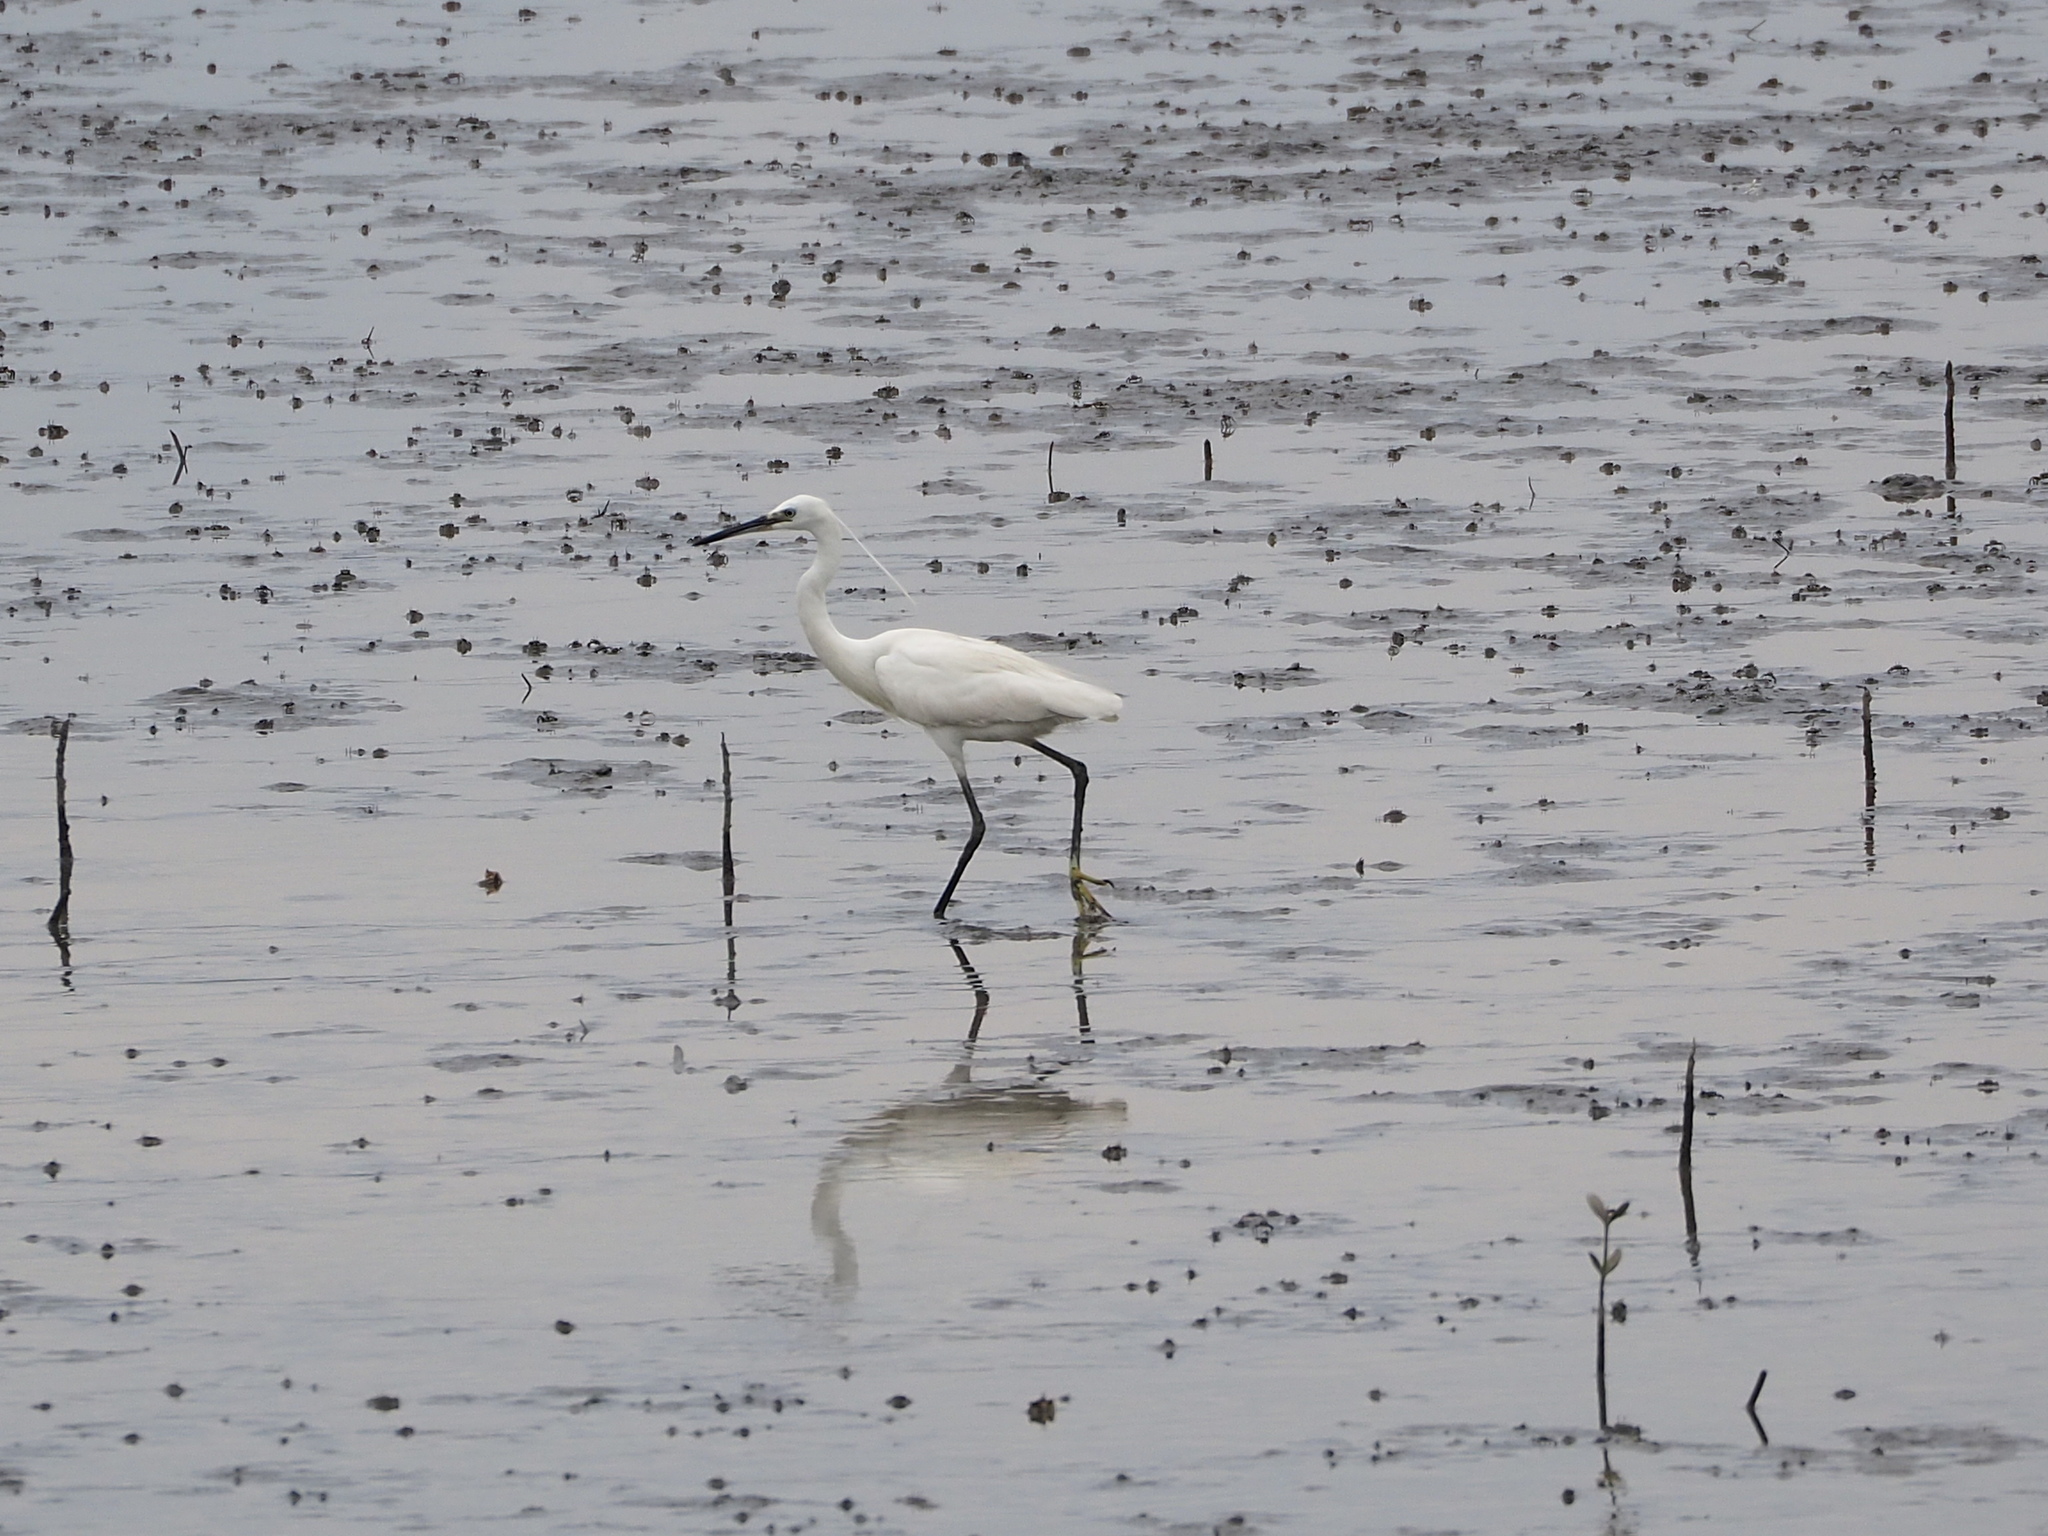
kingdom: Animalia
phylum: Chordata
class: Aves
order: Pelecaniformes
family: Ardeidae
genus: Egretta
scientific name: Egretta garzetta
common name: Little egret
